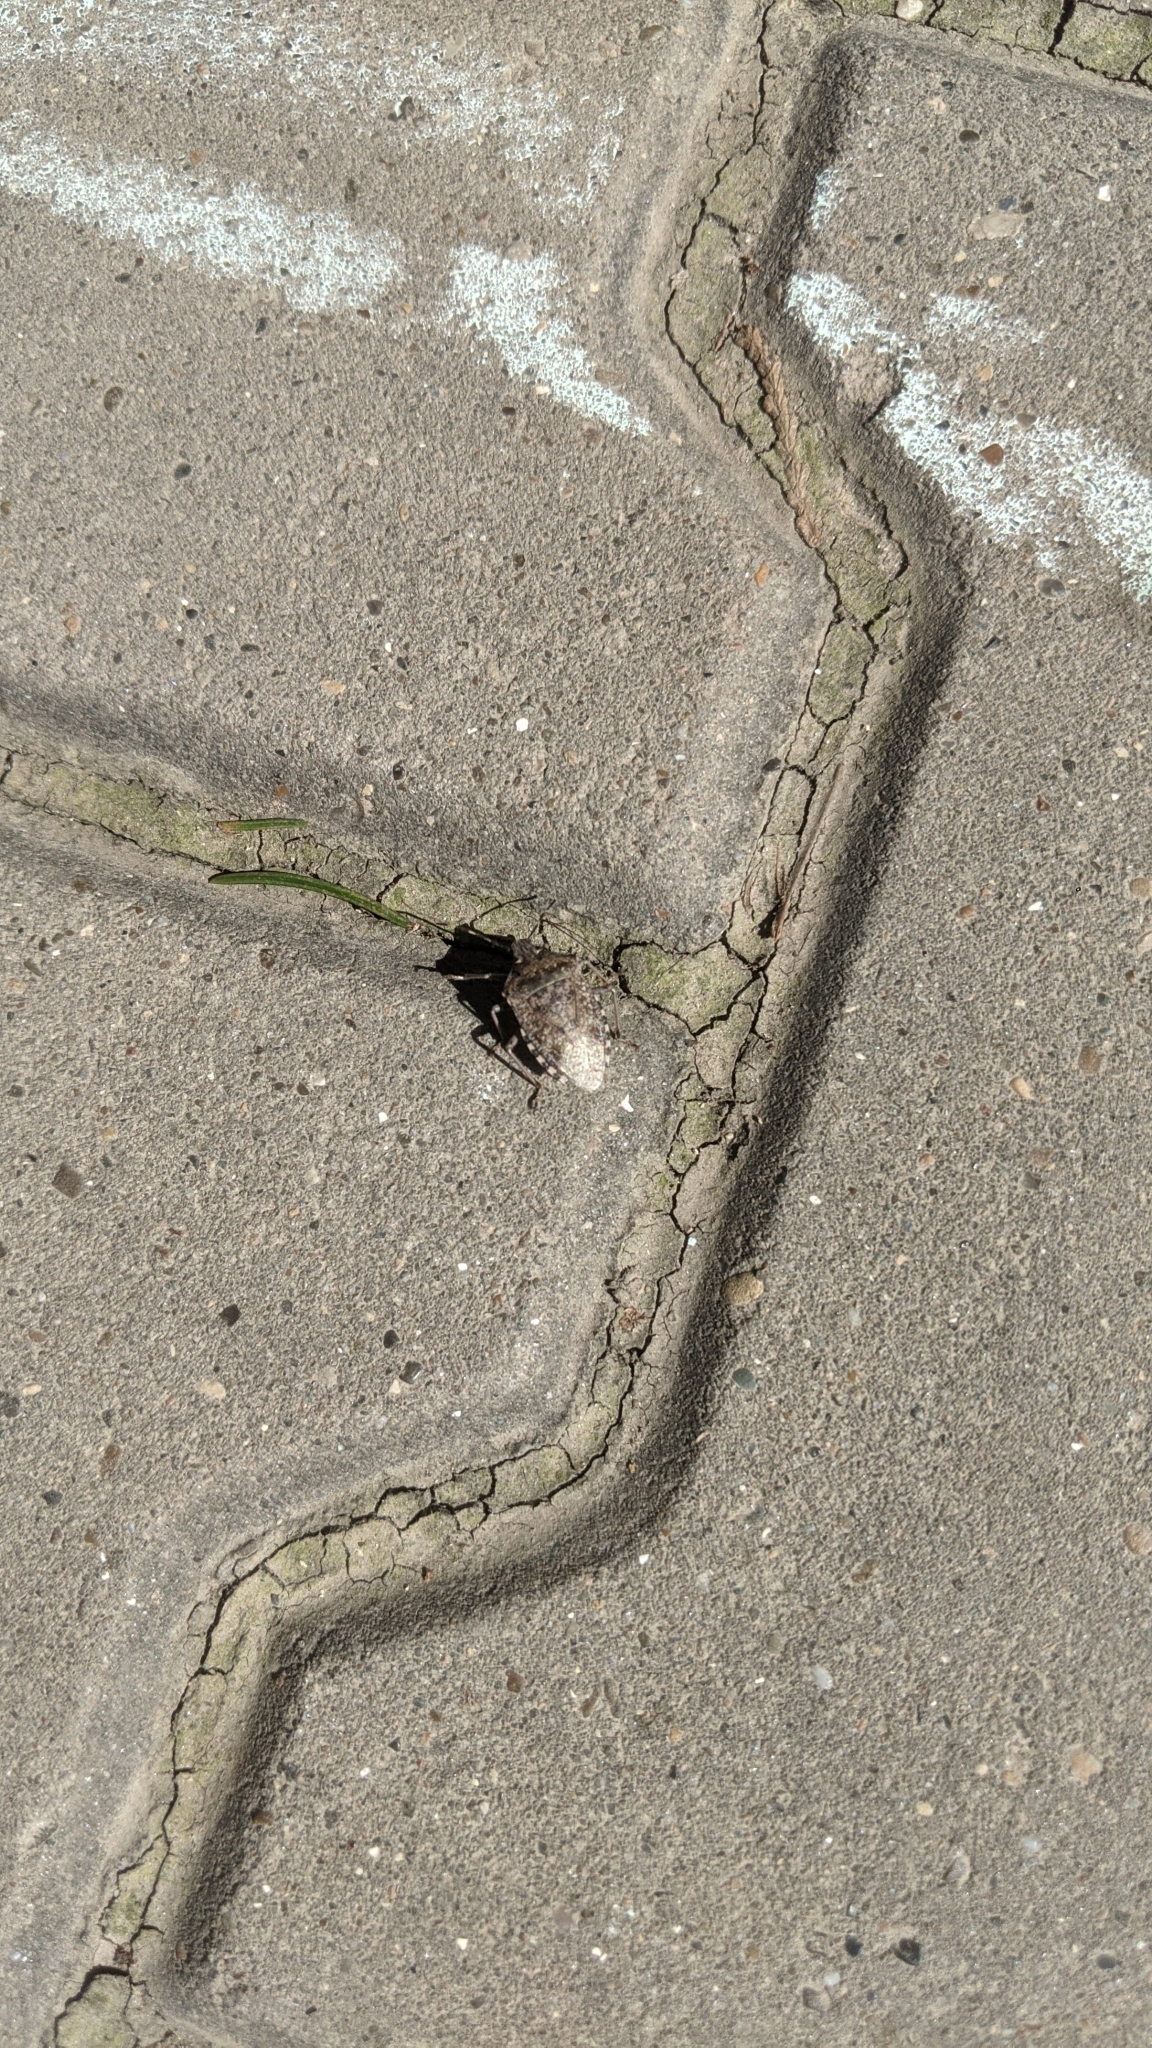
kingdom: Animalia
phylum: Arthropoda
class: Insecta
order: Hemiptera
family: Pentatomidae
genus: Rhaphigaster
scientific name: Rhaphigaster nebulosa
